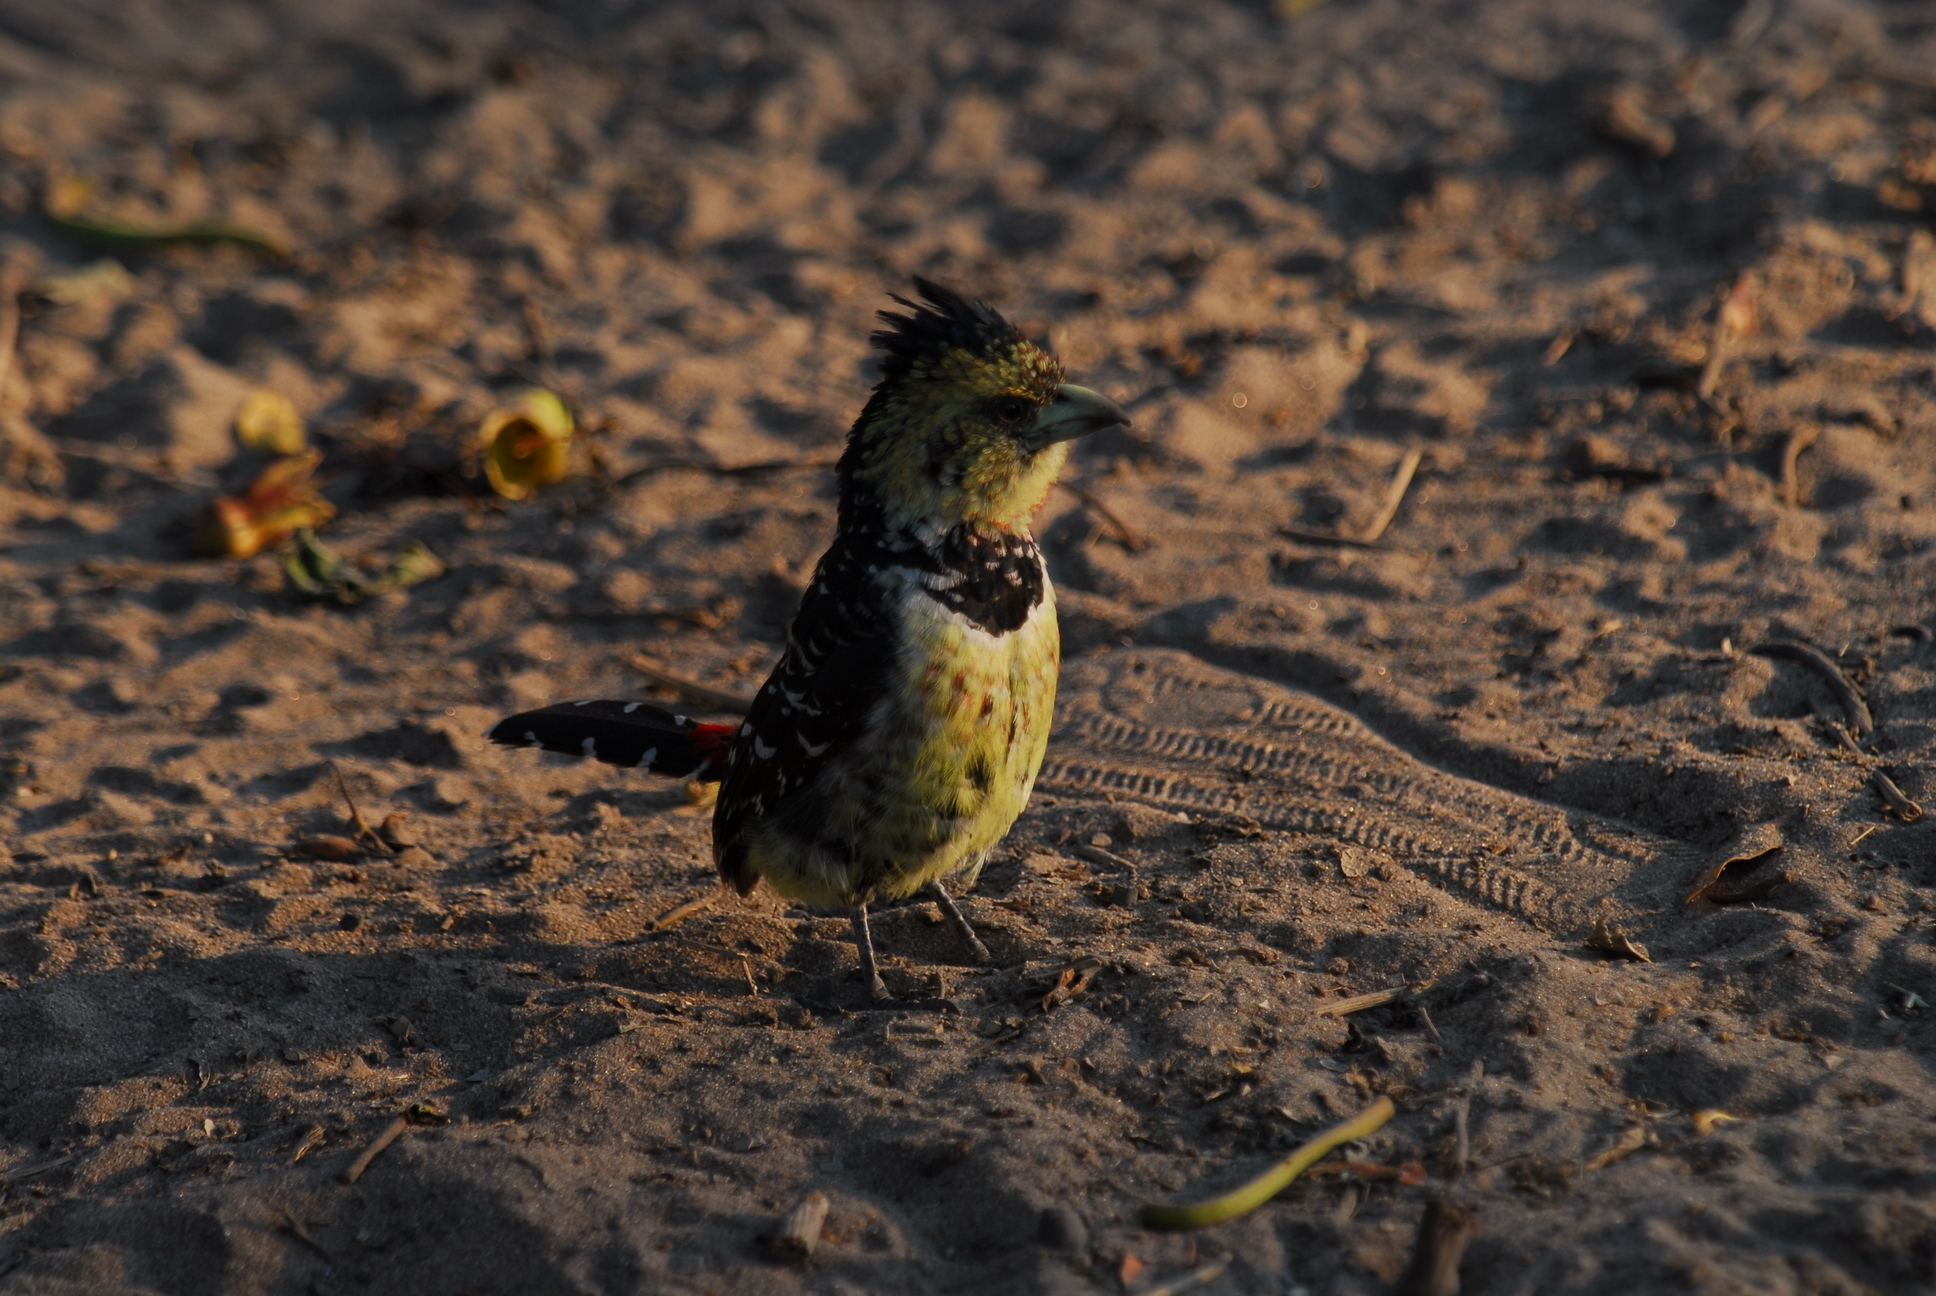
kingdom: Animalia
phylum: Chordata
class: Aves
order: Piciformes
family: Lybiidae
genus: Trachyphonus
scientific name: Trachyphonus vaillantii
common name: Crested barbet
